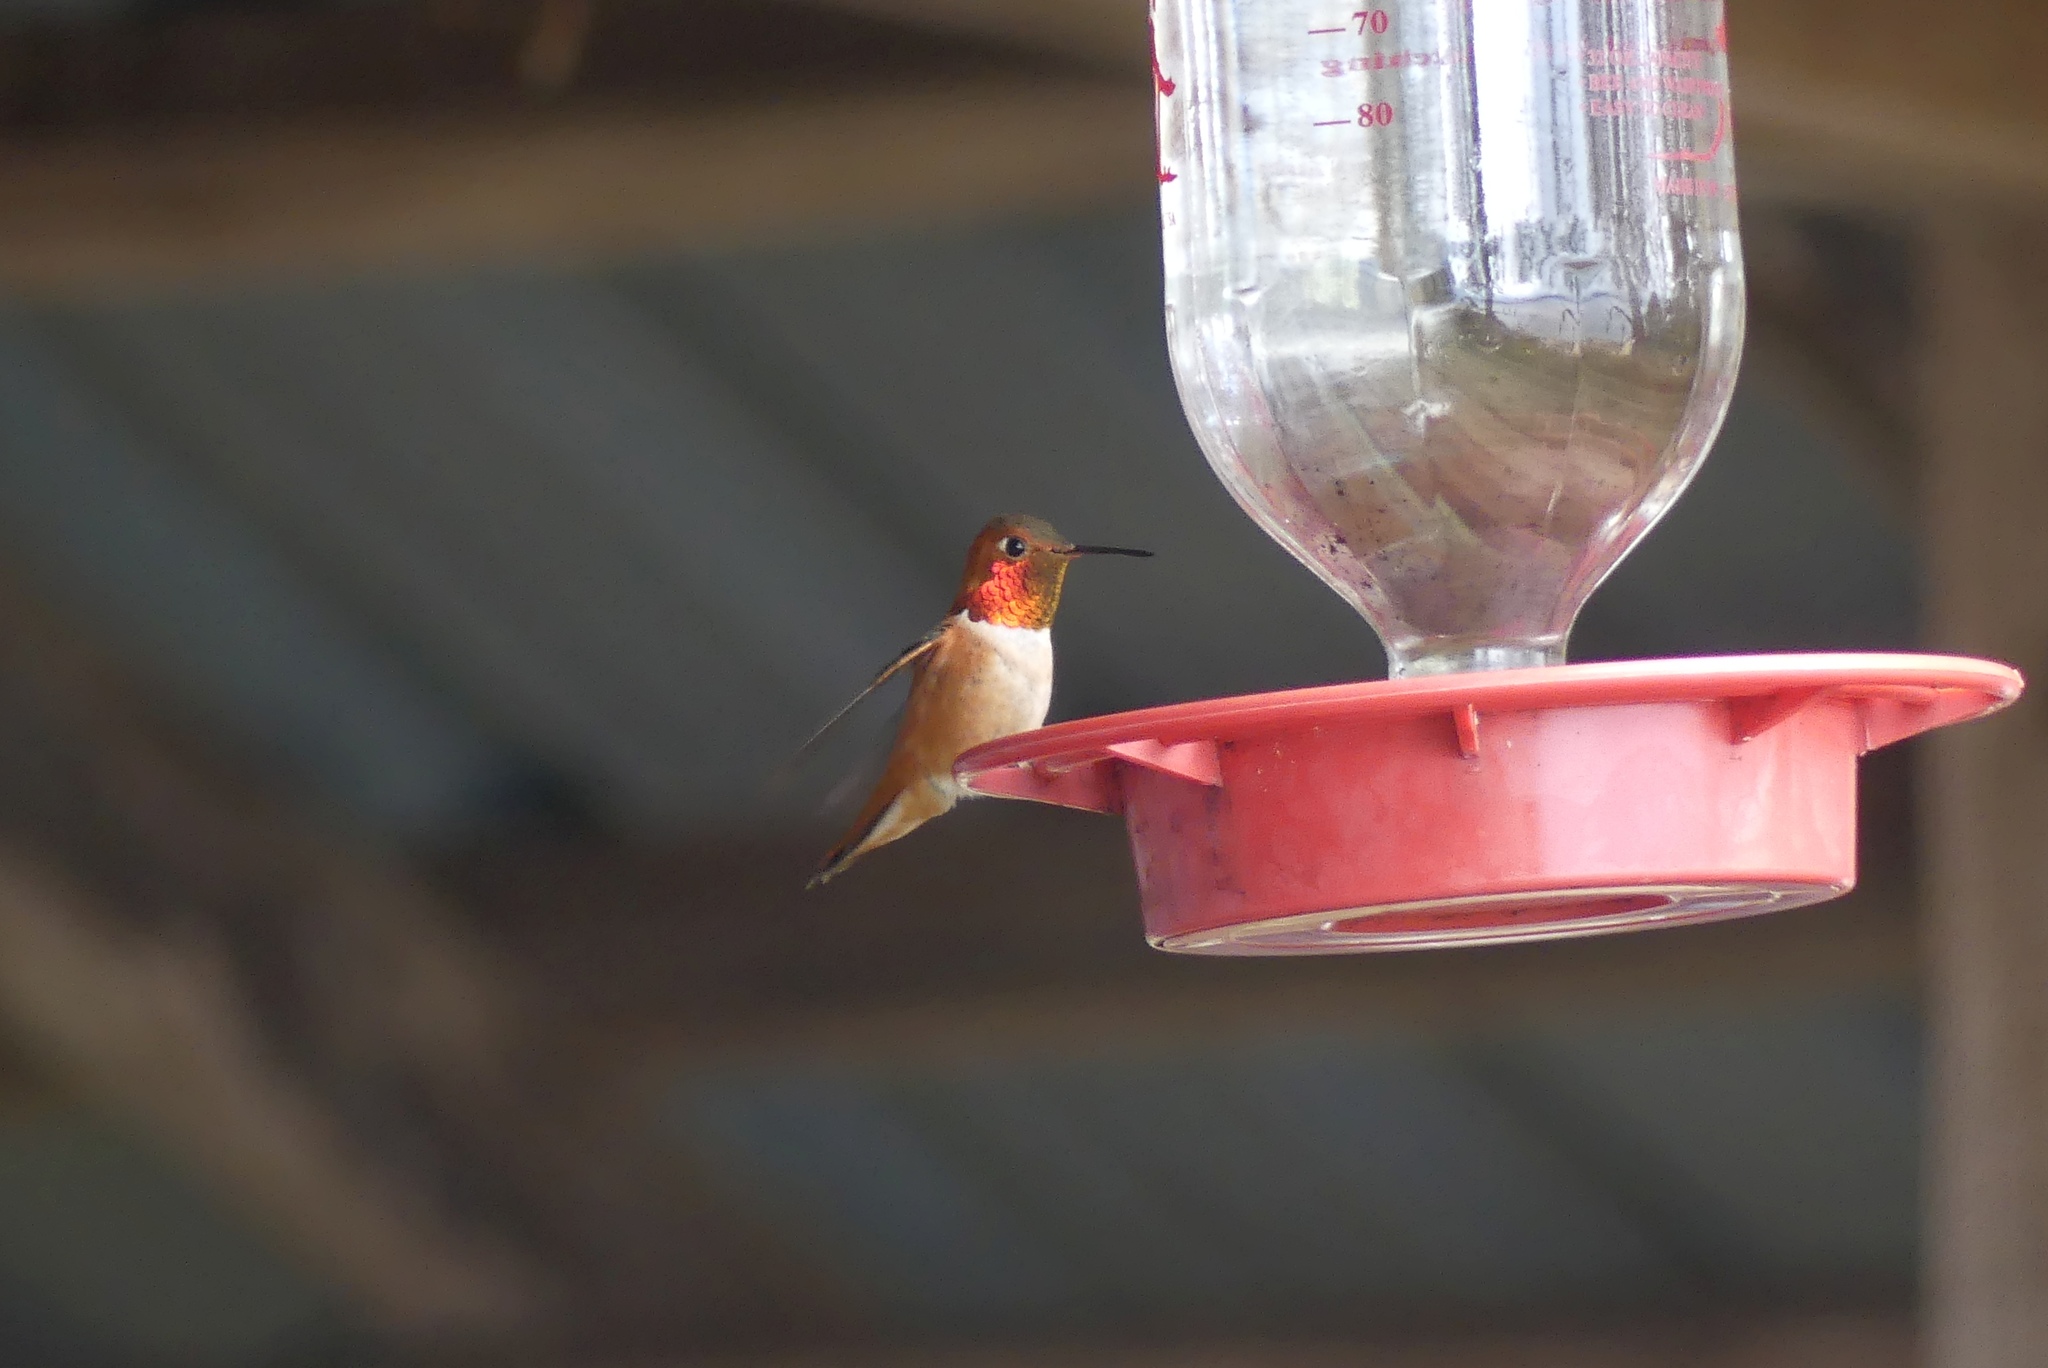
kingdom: Animalia
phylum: Chordata
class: Aves
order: Apodiformes
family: Trochilidae
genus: Selasphorus
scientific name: Selasphorus rufus
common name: Rufous hummingbird
